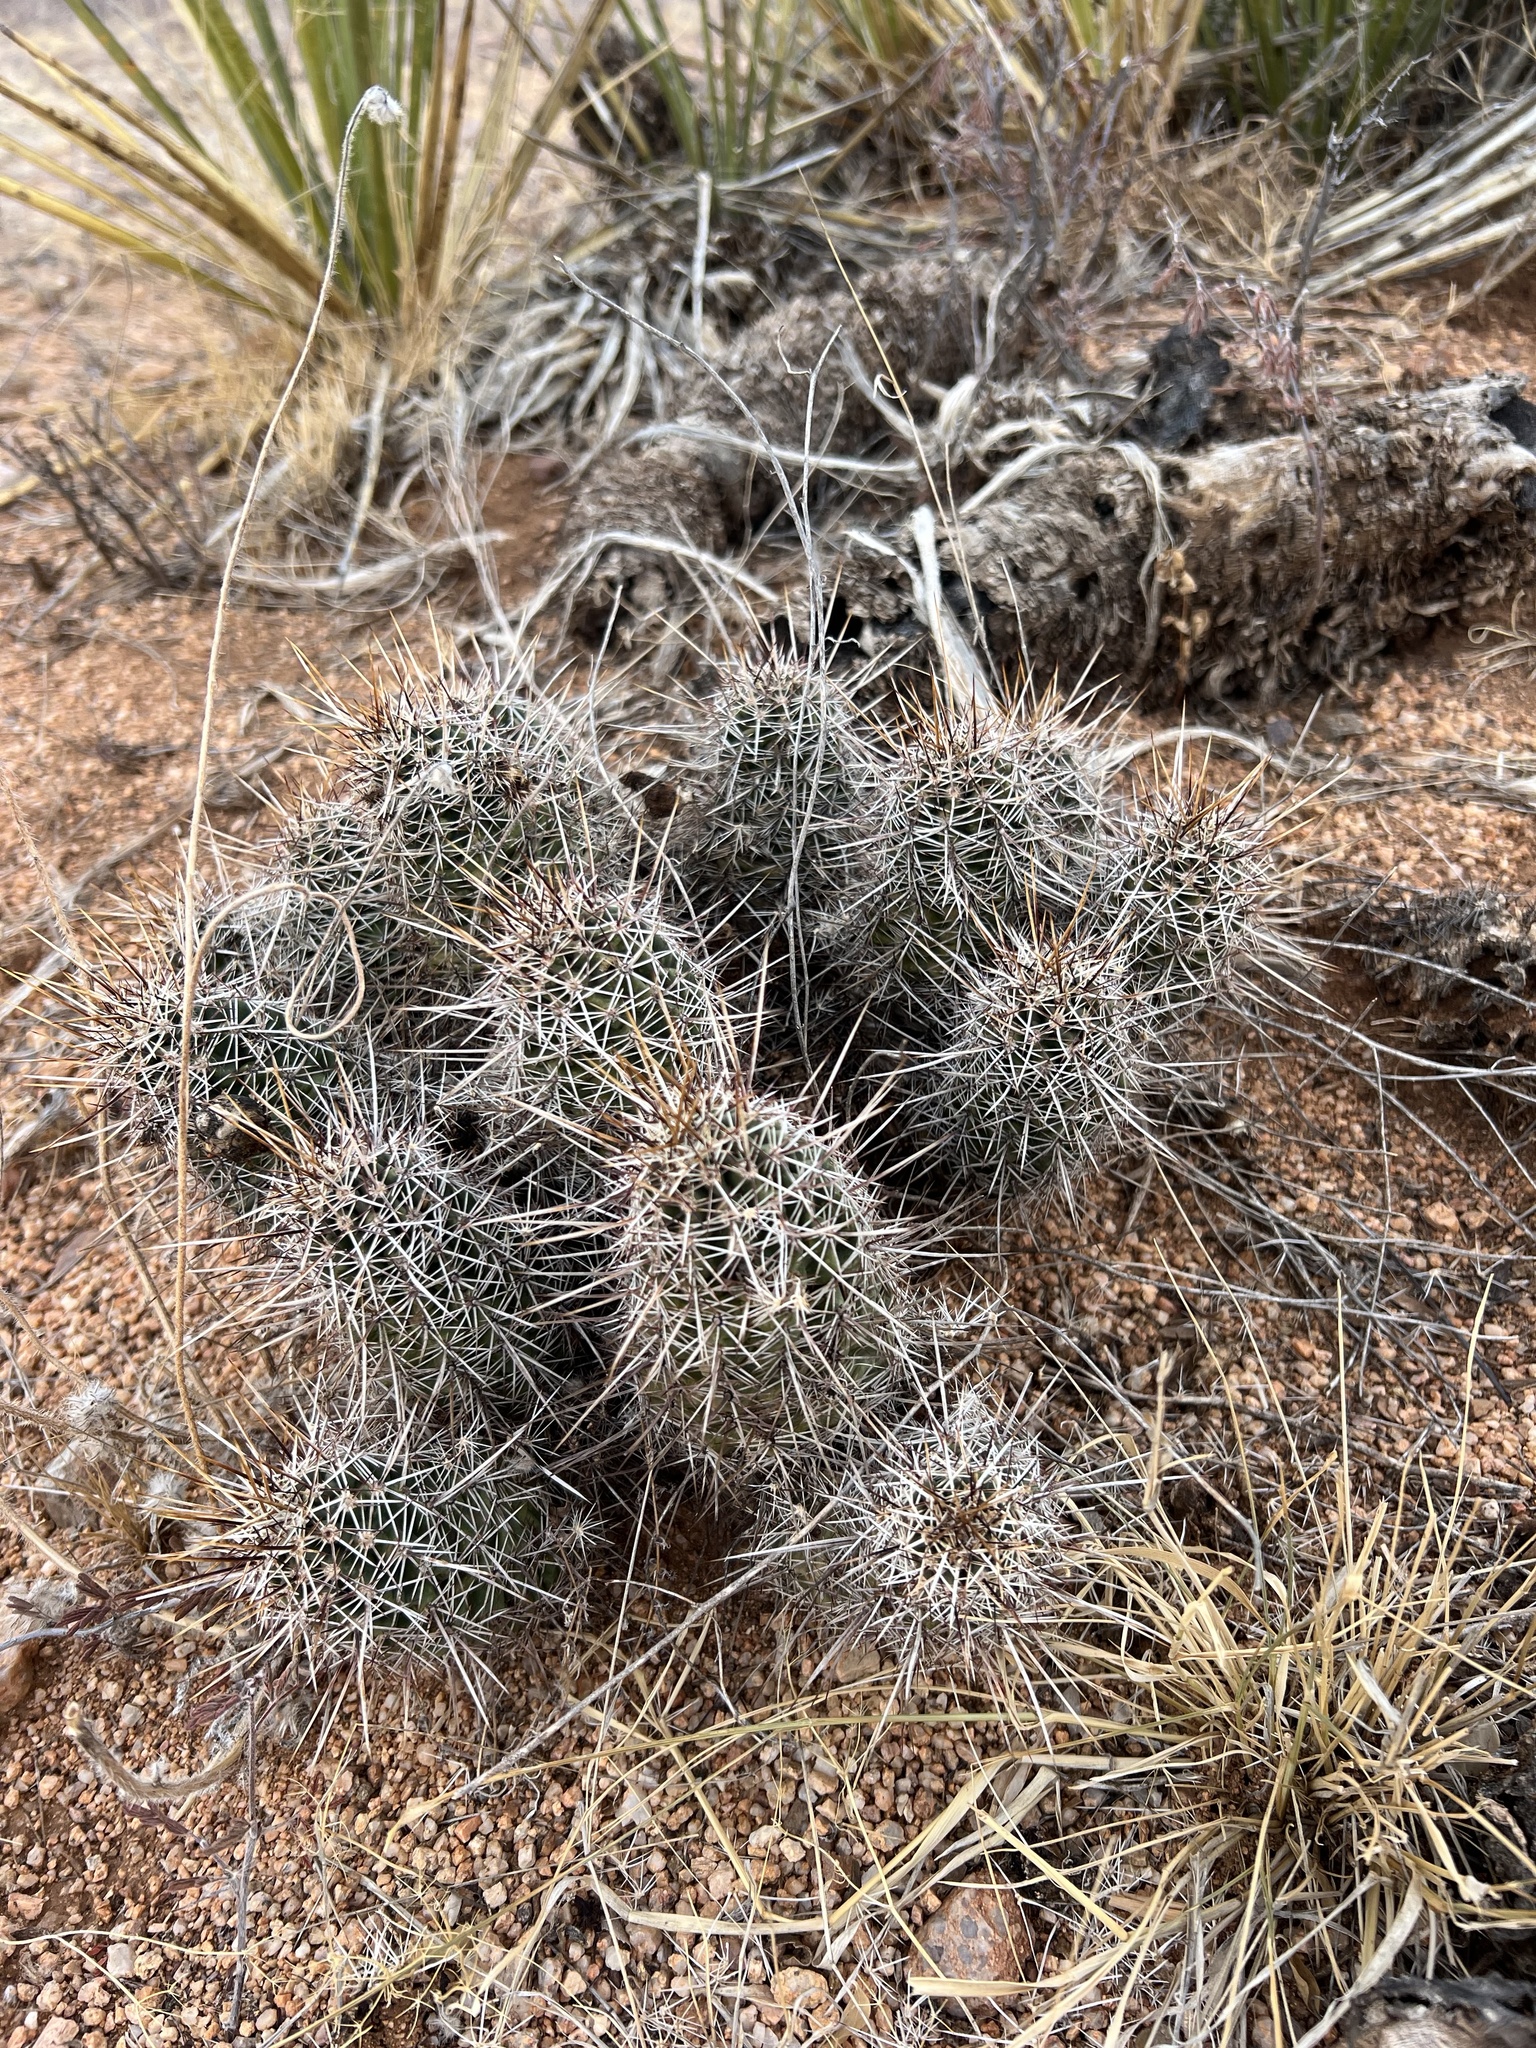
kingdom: Plantae
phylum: Tracheophyta
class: Magnoliopsida
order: Caryophyllales
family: Cactaceae
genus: Echinocereus
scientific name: Echinocereus fasciculatus
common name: Bundle hedgehog
